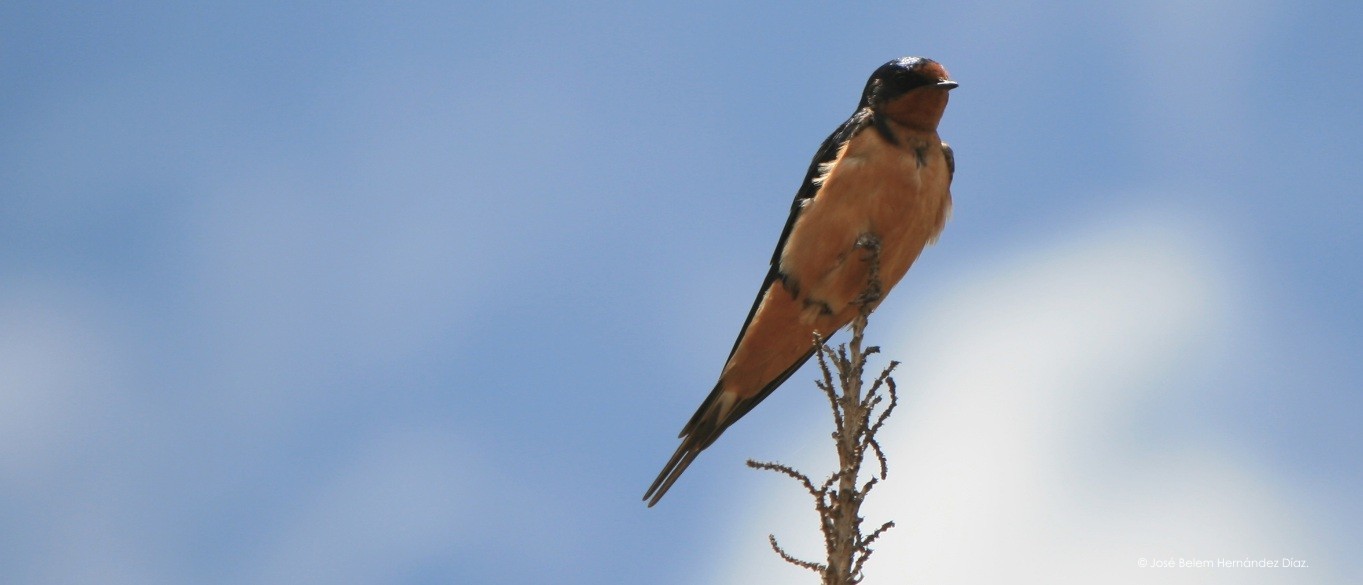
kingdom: Animalia
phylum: Chordata
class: Aves
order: Passeriformes
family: Hirundinidae
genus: Hirundo
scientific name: Hirundo rustica
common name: Barn swallow
